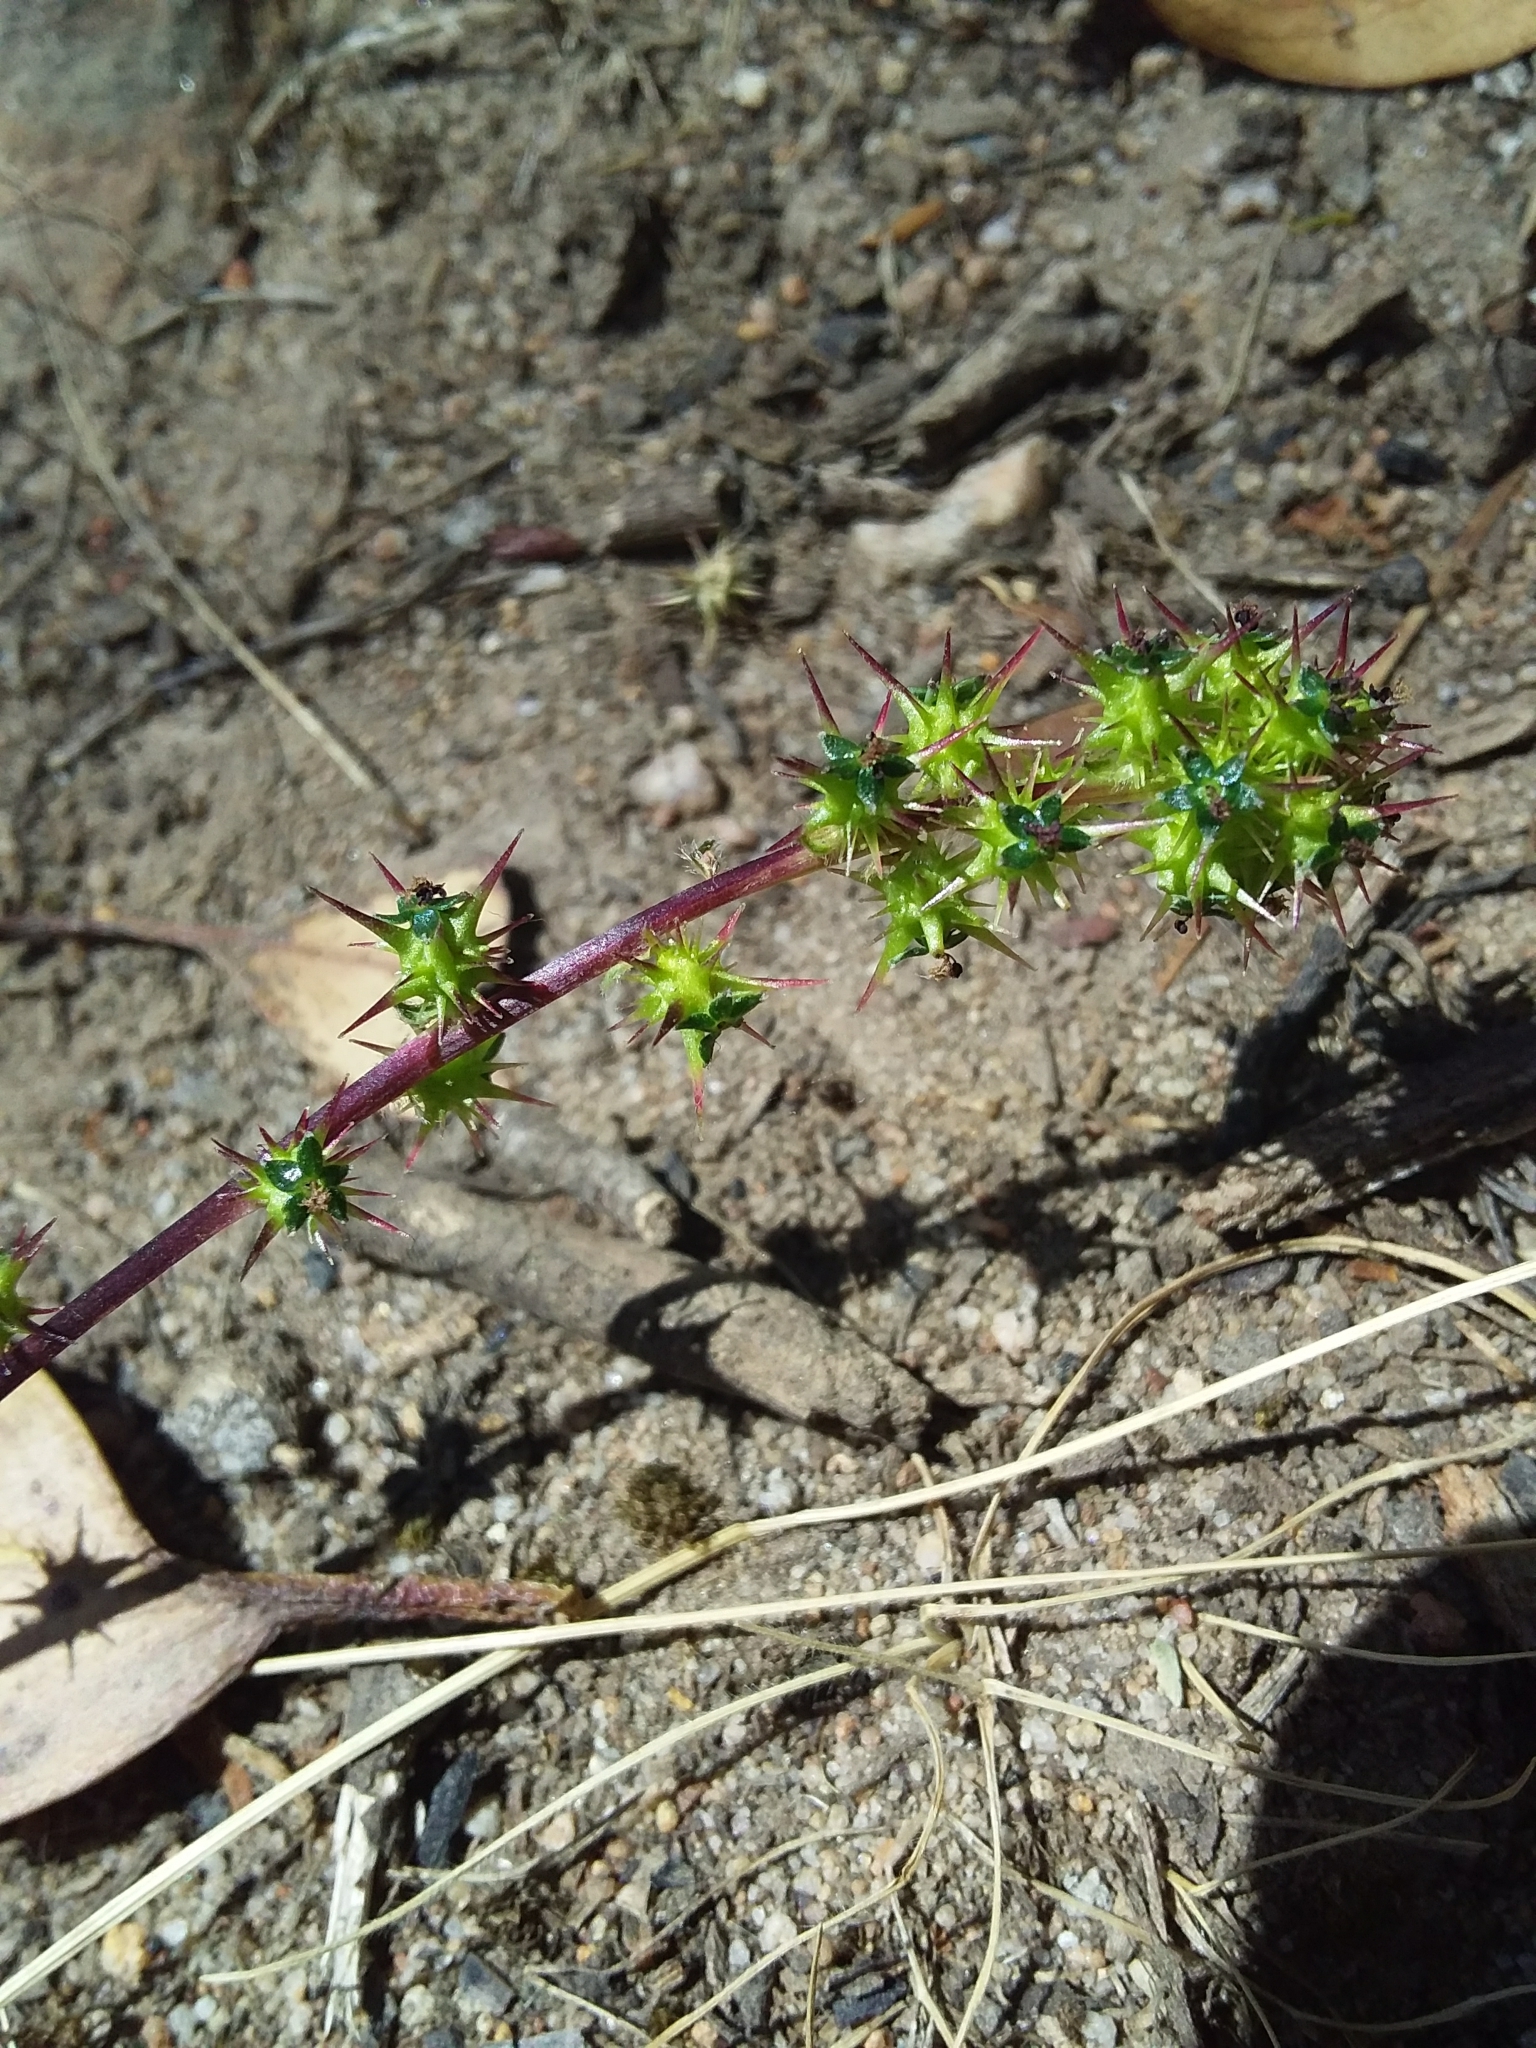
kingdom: Plantae
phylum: Tracheophyta
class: Magnoliopsida
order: Rosales
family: Rosaceae
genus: Acaena
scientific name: Acaena echinata
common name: Sheepbur
